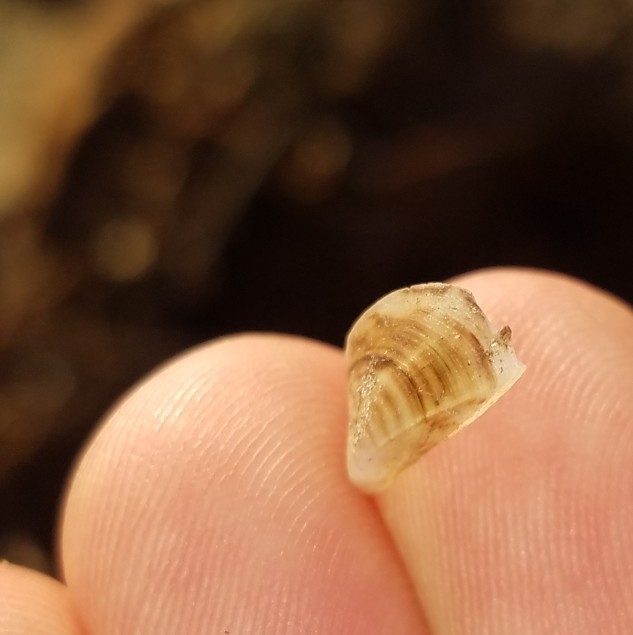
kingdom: Animalia
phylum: Mollusca
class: Bivalvia
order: Myida
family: Dreissenidae
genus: Dreissena
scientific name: Dreissena polymorpha
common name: Zebra mussel
